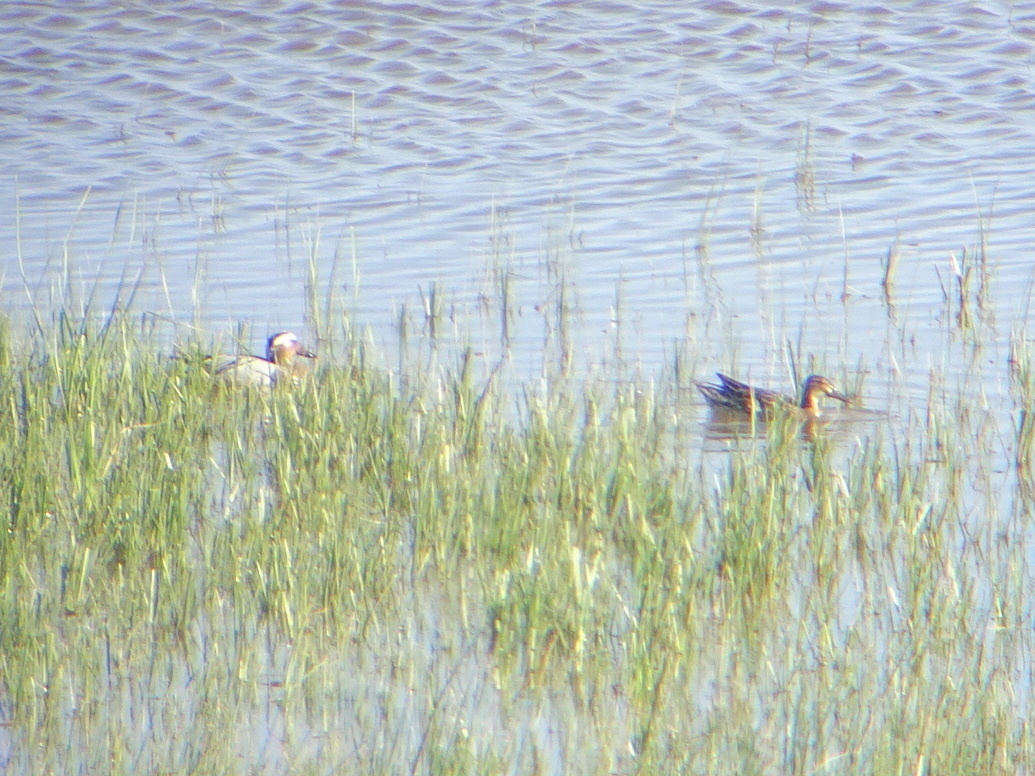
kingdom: Animalia
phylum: Chordata
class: Aves
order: Anseriformes
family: Anatidae
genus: Spatula
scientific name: Spatula querquedula
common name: Garganey
